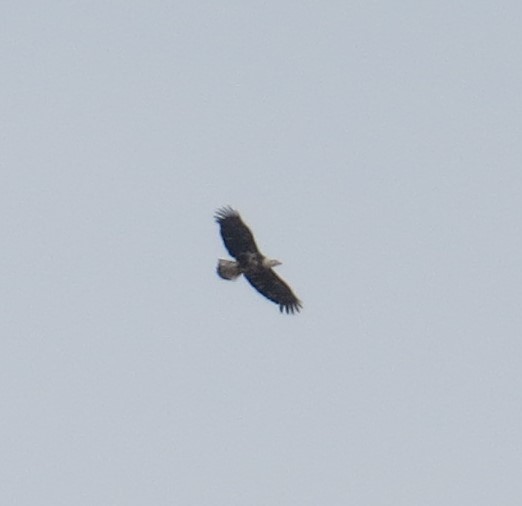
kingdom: Animalia
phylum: Chordata
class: Aves
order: Accipitriformes
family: Accipitridae
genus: Haliaeetus
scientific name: Haliaeetus leucocephalus
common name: Bald eagle
